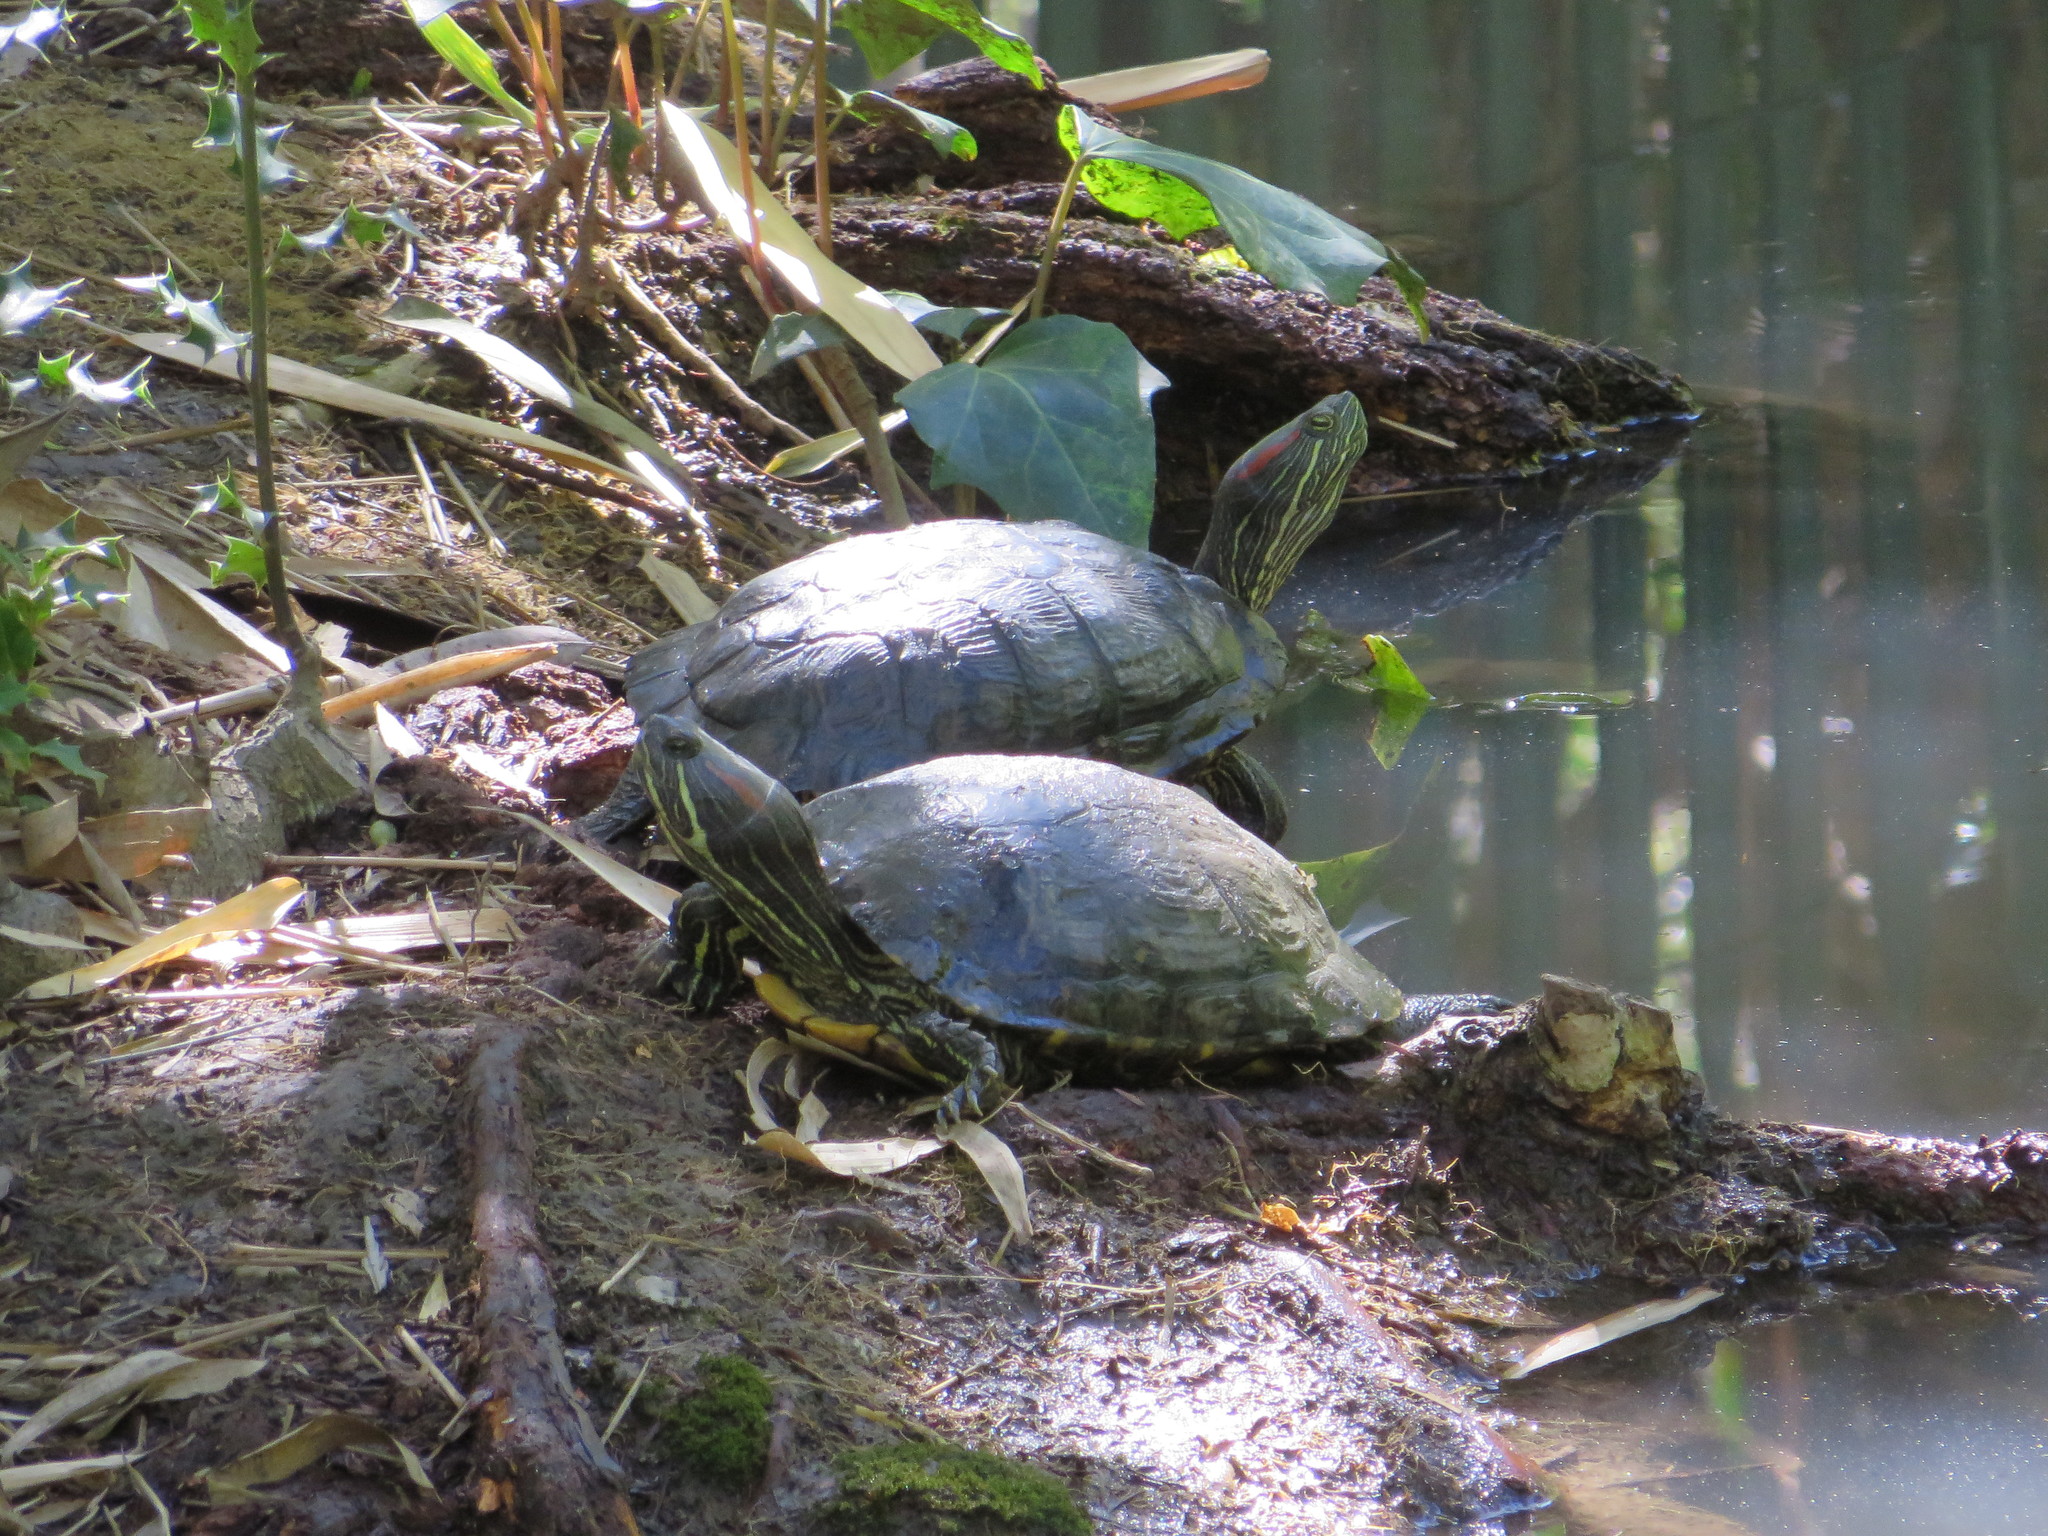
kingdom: Animalia
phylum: Chordata
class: Testudines
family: Emydidae
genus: Trachemys
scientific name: Trachemys scripta
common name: Slider
